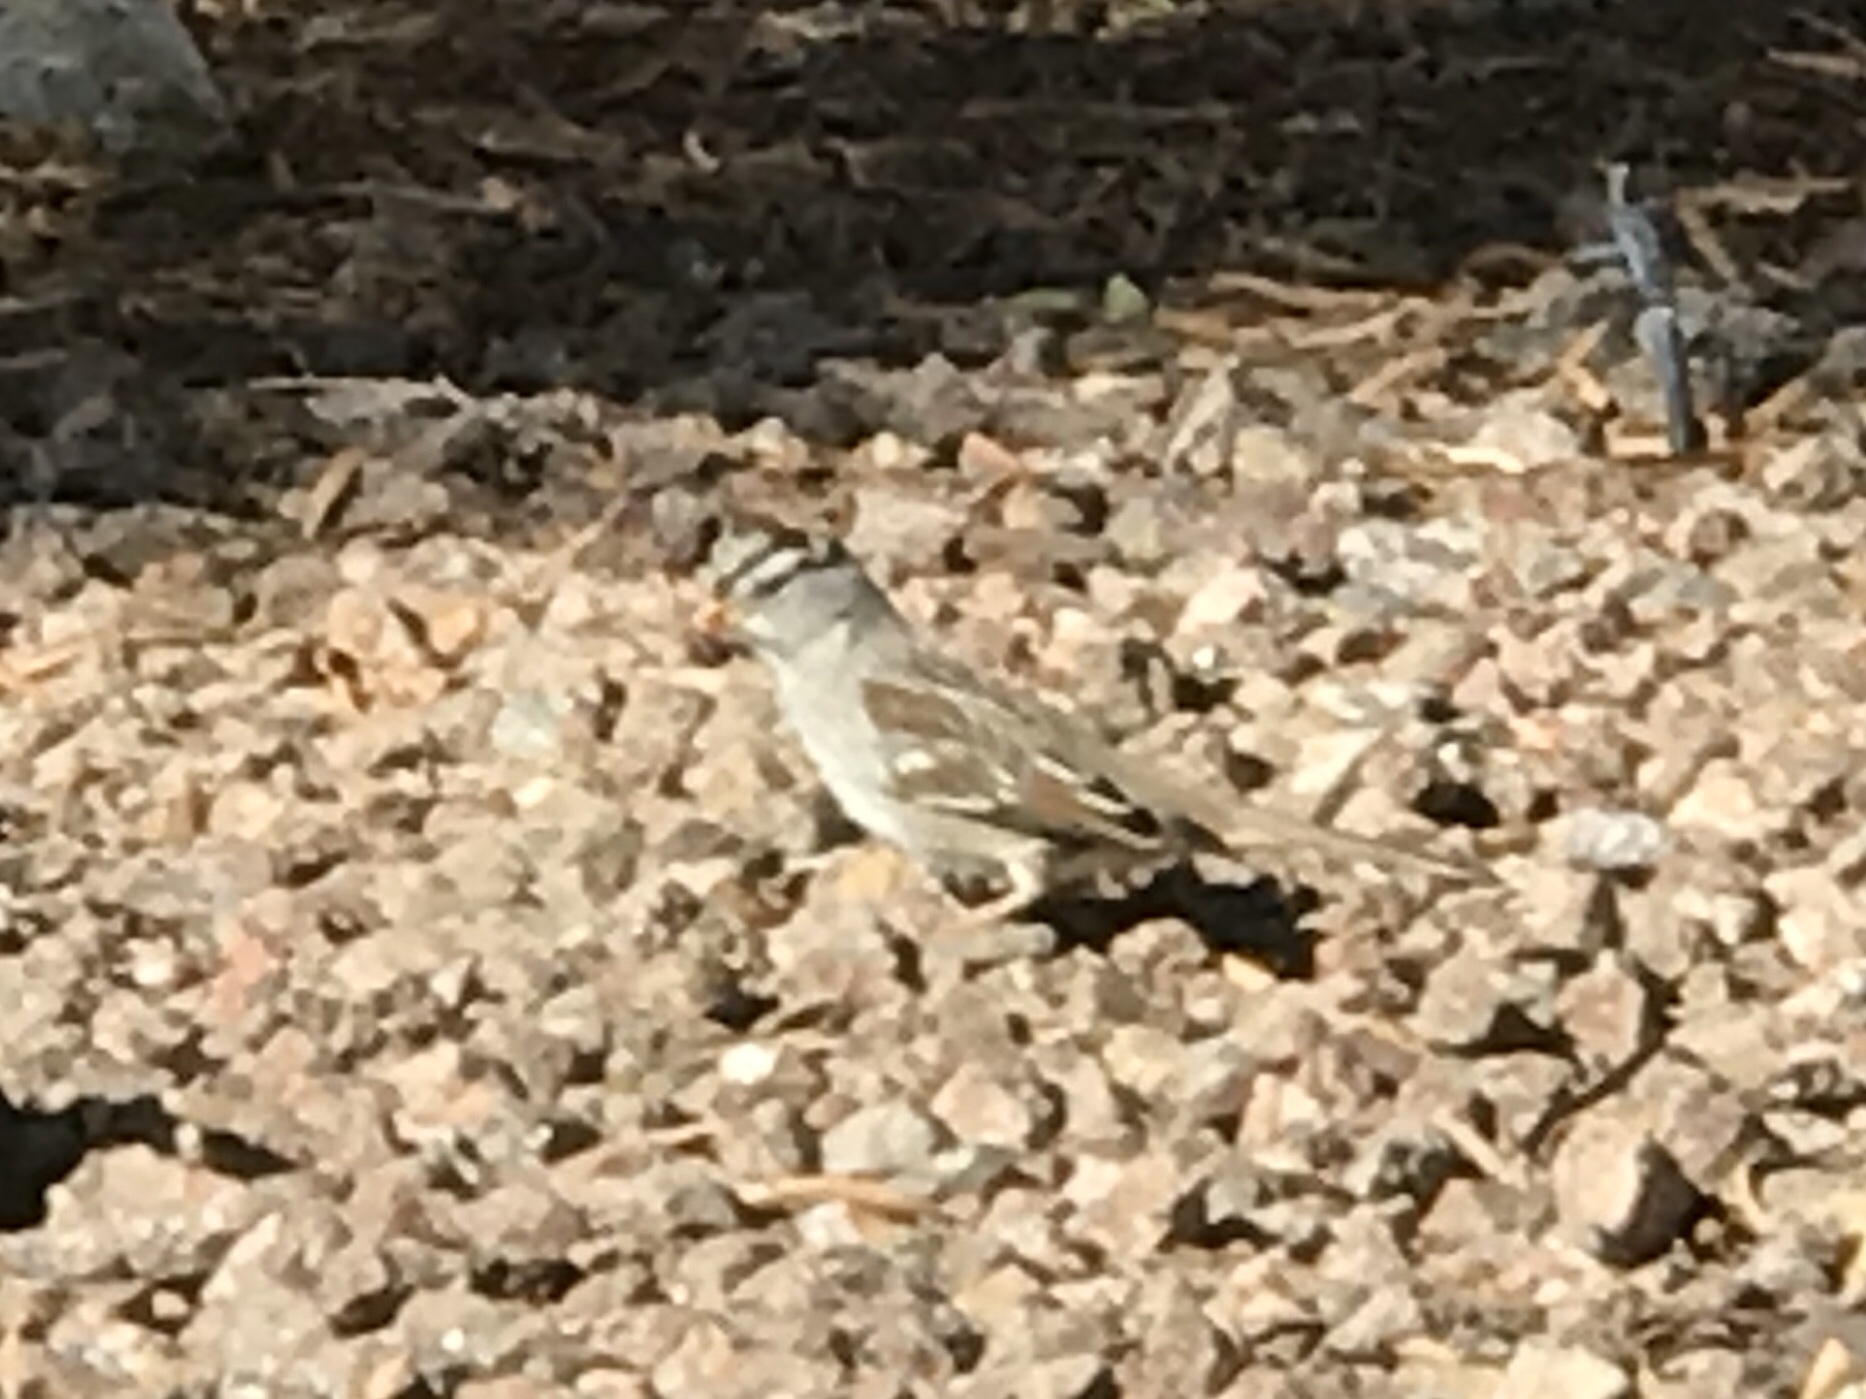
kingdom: Animalia
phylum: Chordata
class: Aves
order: Passeriformes
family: Passerellidae
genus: Zonotrichia
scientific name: Zonotrichia leucophrys
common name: White-crowned sparrow
